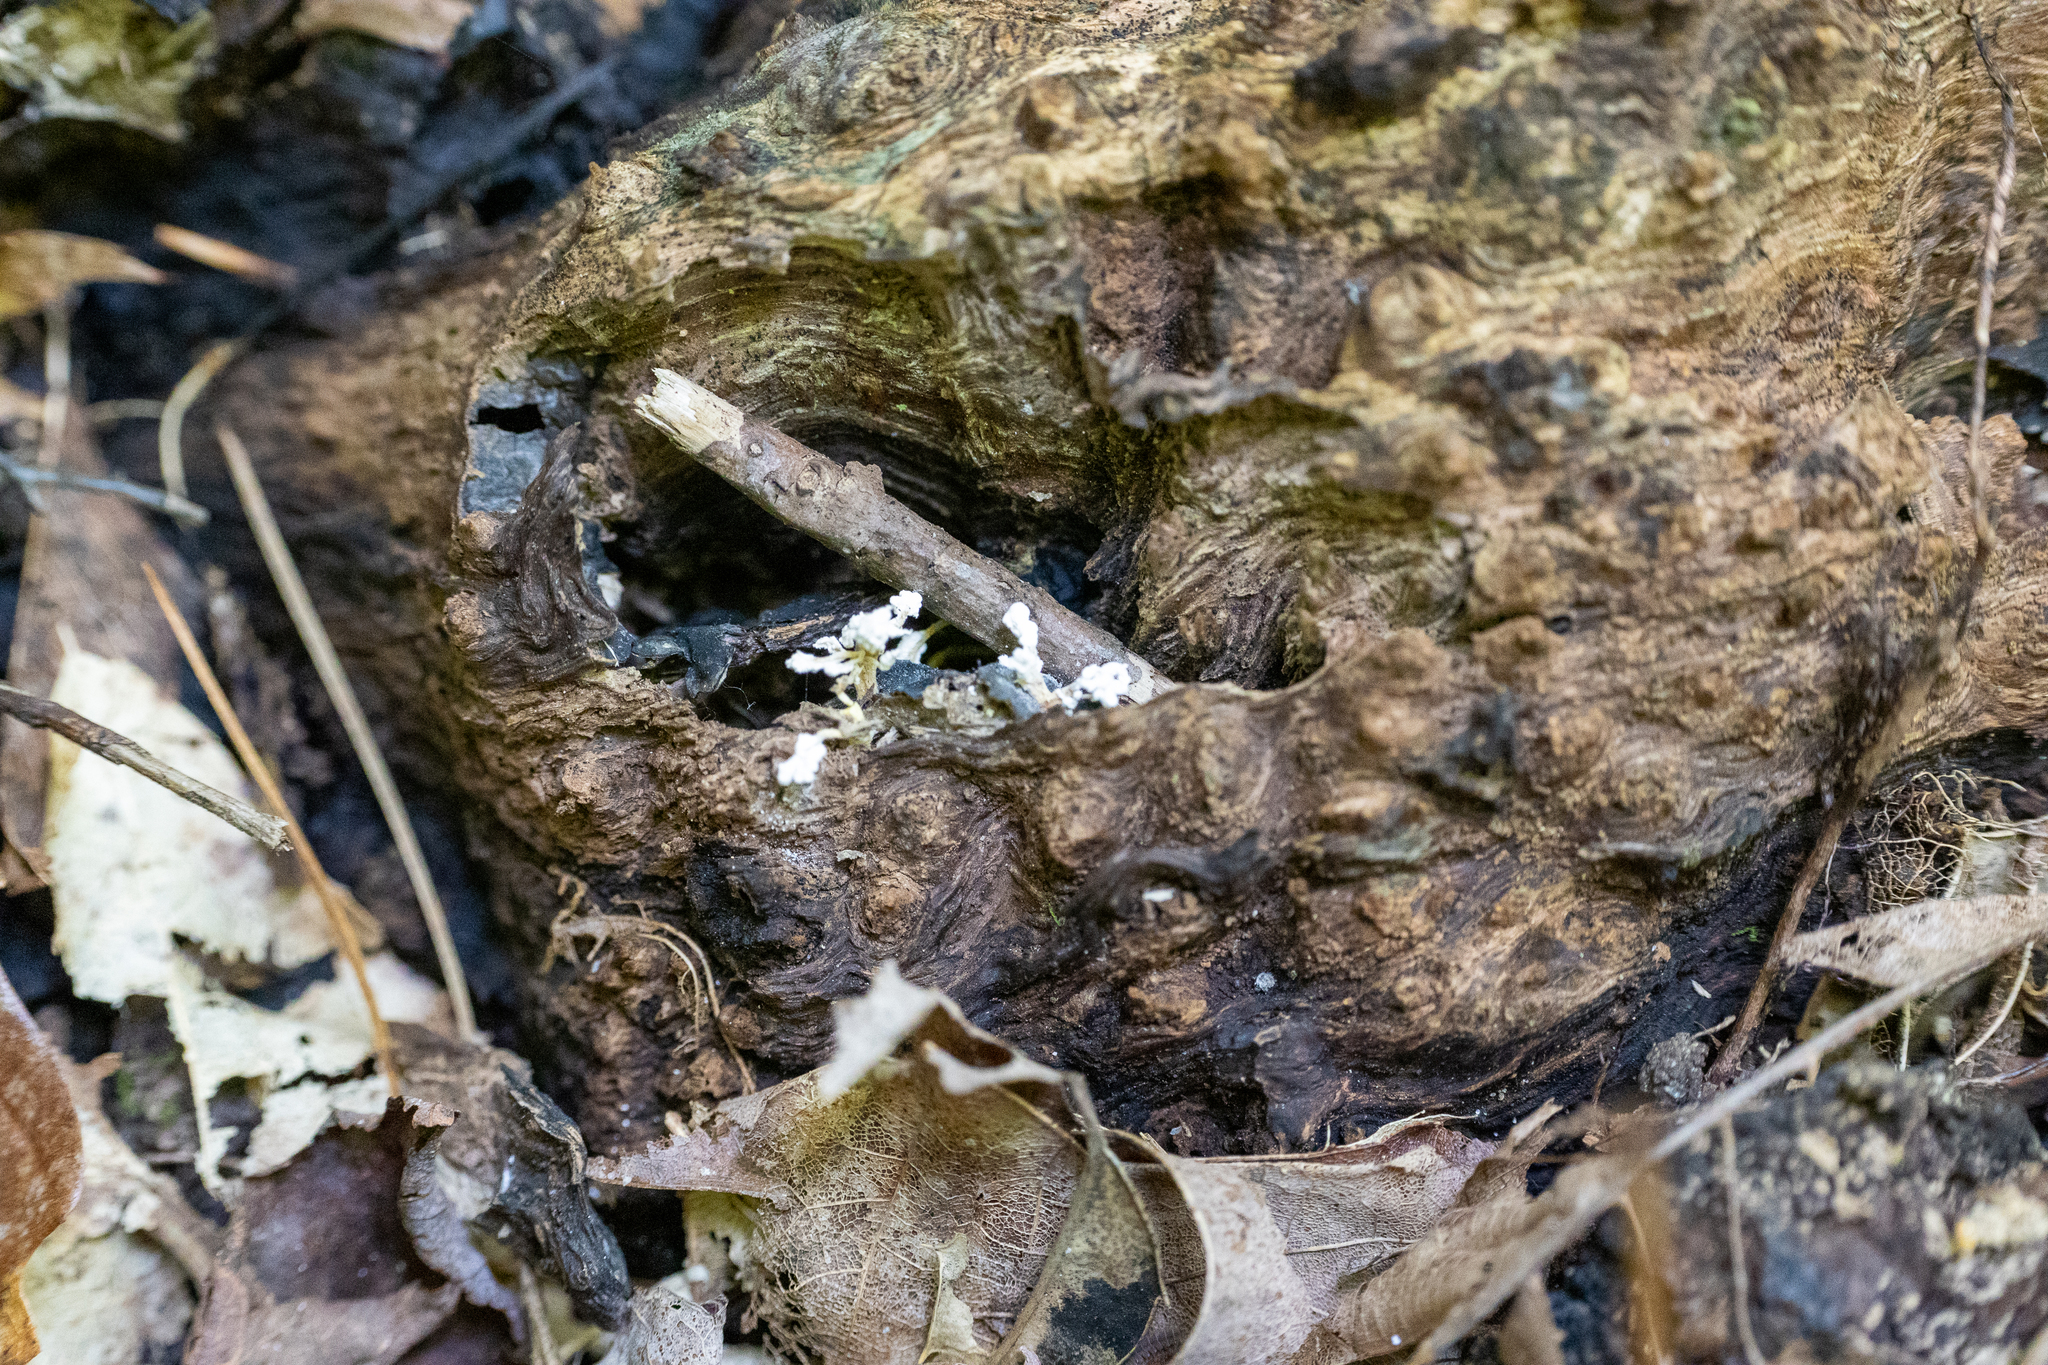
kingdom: Fungi
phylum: Ascomycota
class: Sordariomycetes
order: Hypocreales
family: Cordycipitaceae
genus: Cordyceps
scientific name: Cordyceps tenuipes
